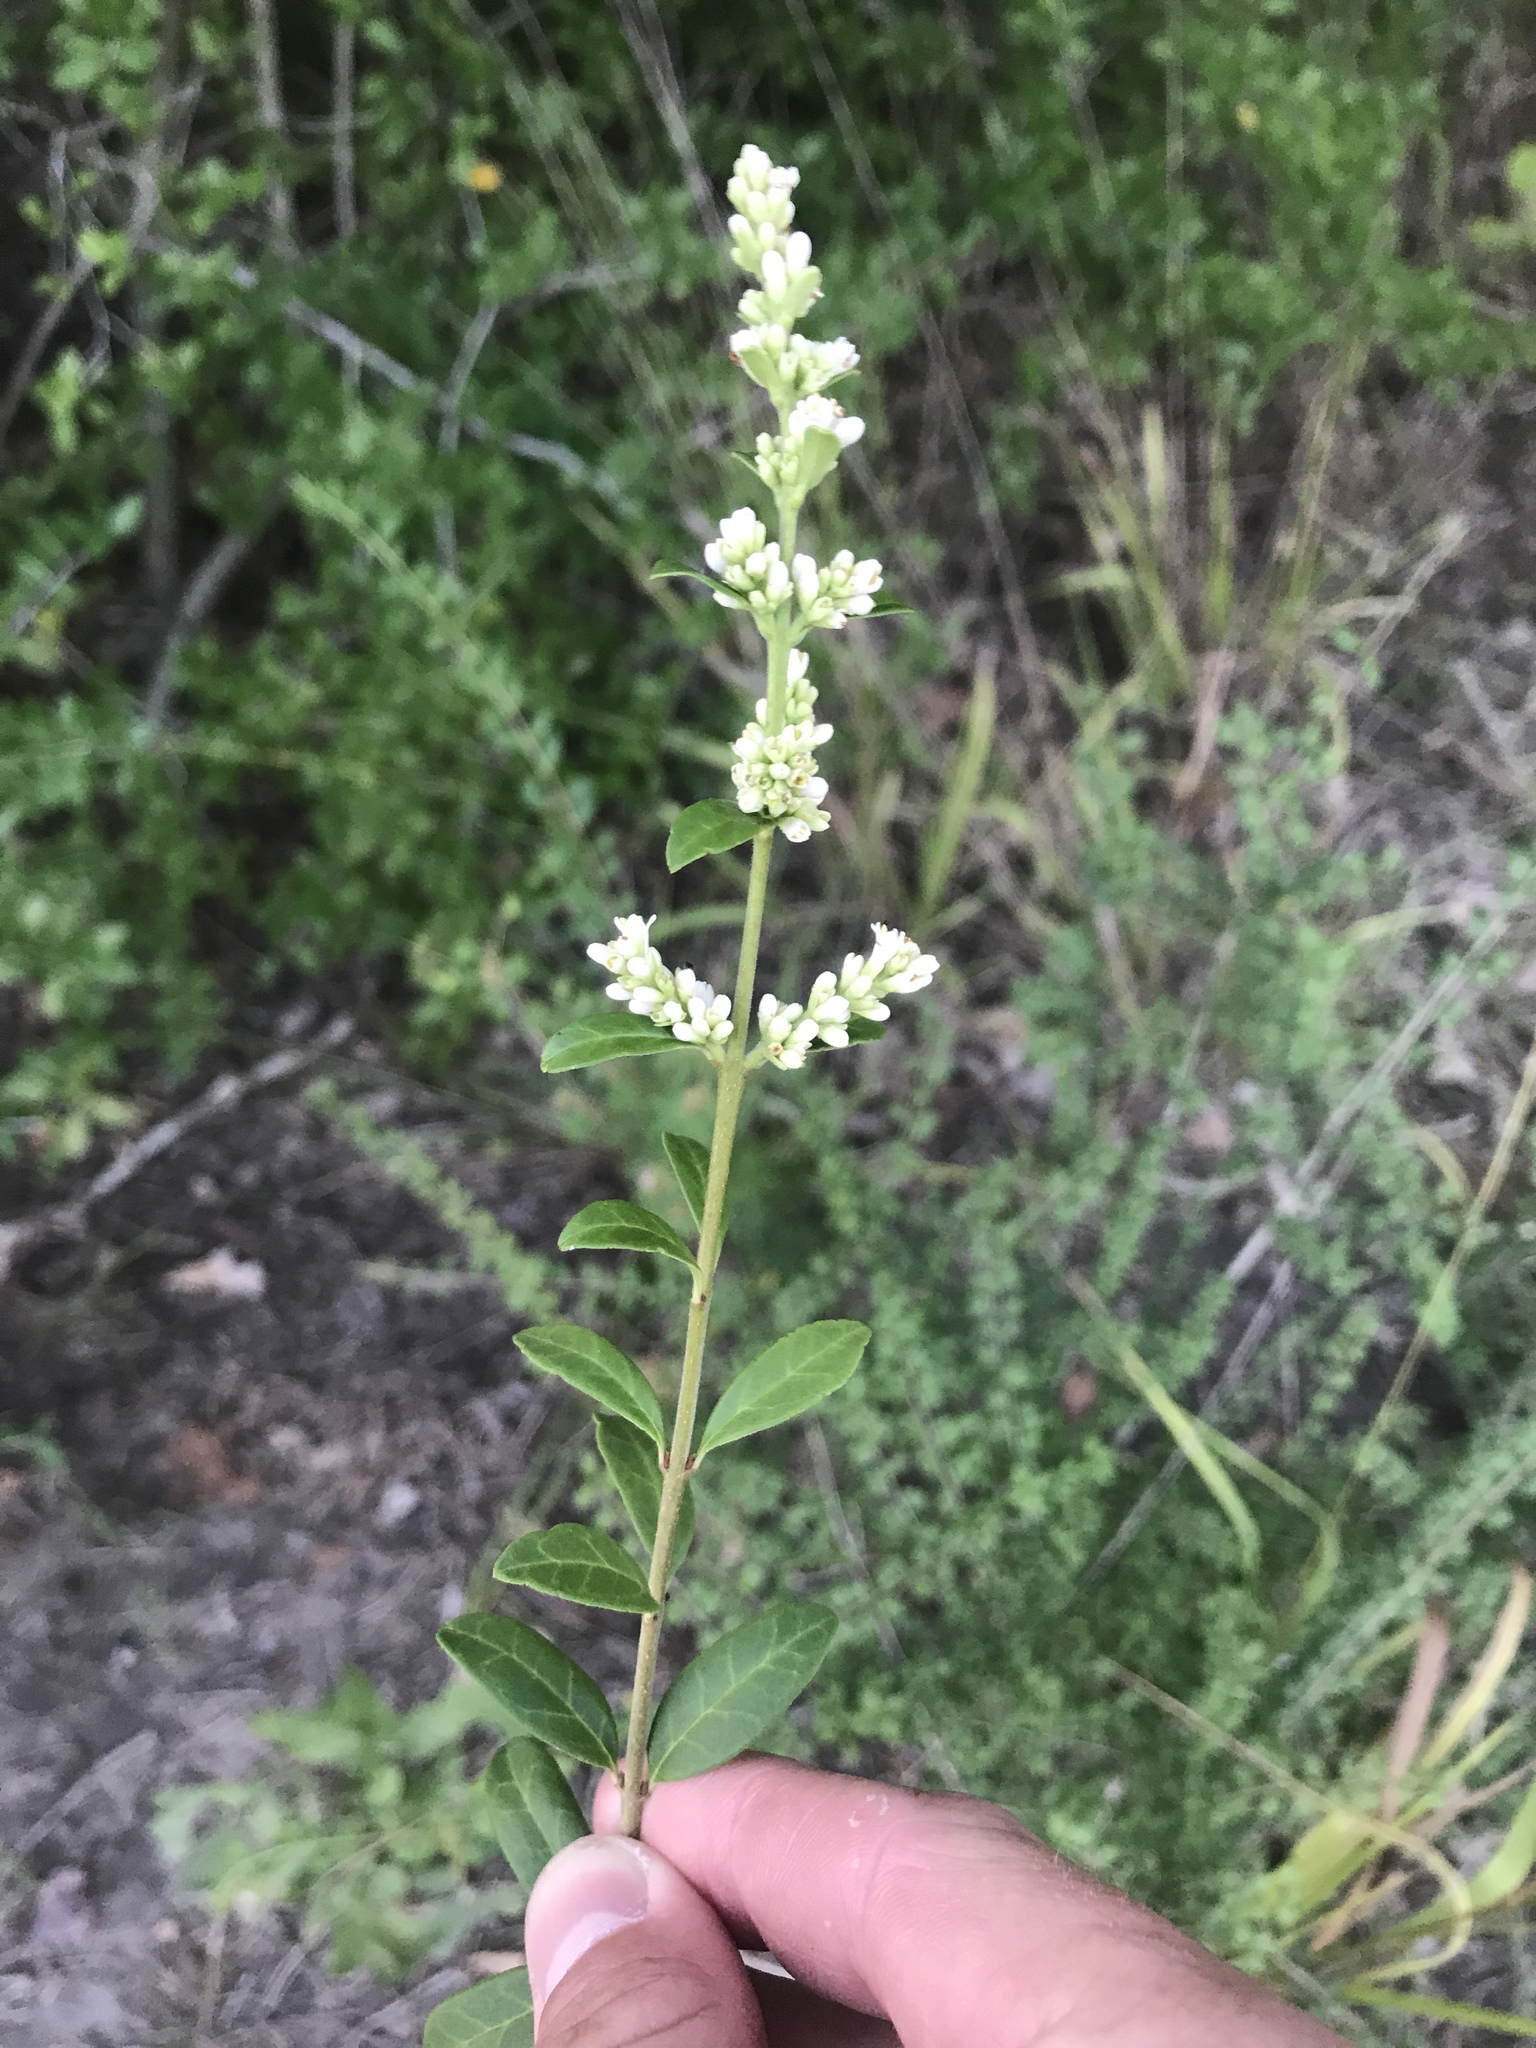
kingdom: Plantae
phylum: Tracheophyta
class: Magnoliopsida
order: Lamiales
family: Oleaceae
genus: Ligustrum
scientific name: Ligustrum quihoui
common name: Waxyleaf privet
